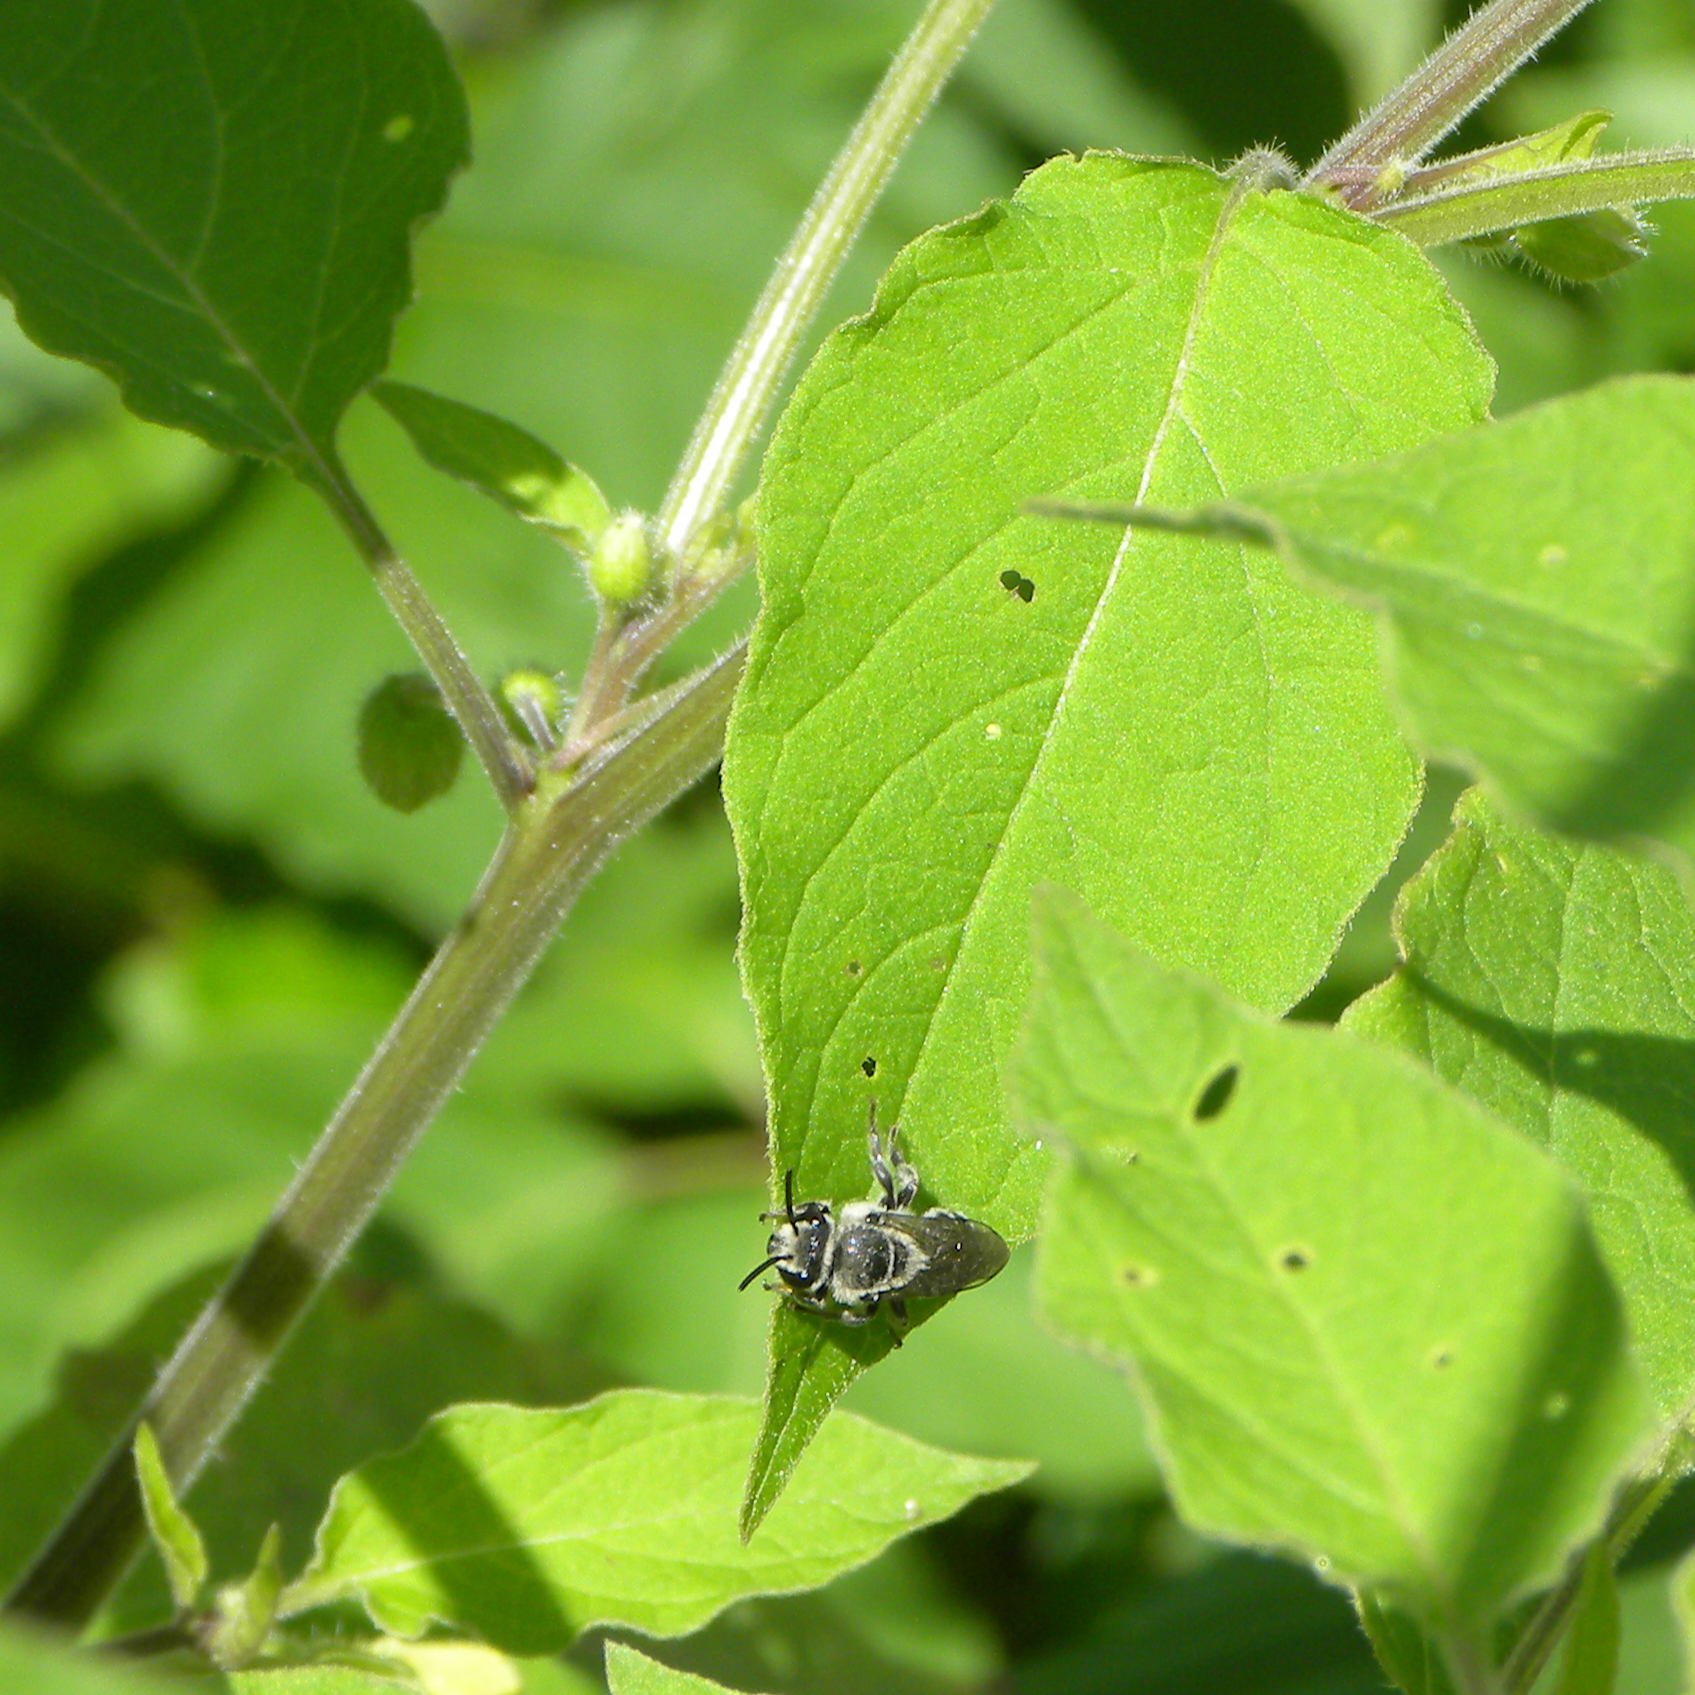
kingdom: Animalia
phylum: Arthropoda
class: Insecta
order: Hymenoptera
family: Colletidae
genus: Colletes
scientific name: Colletes latitarsis
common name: Broad-footed cellophane bee
